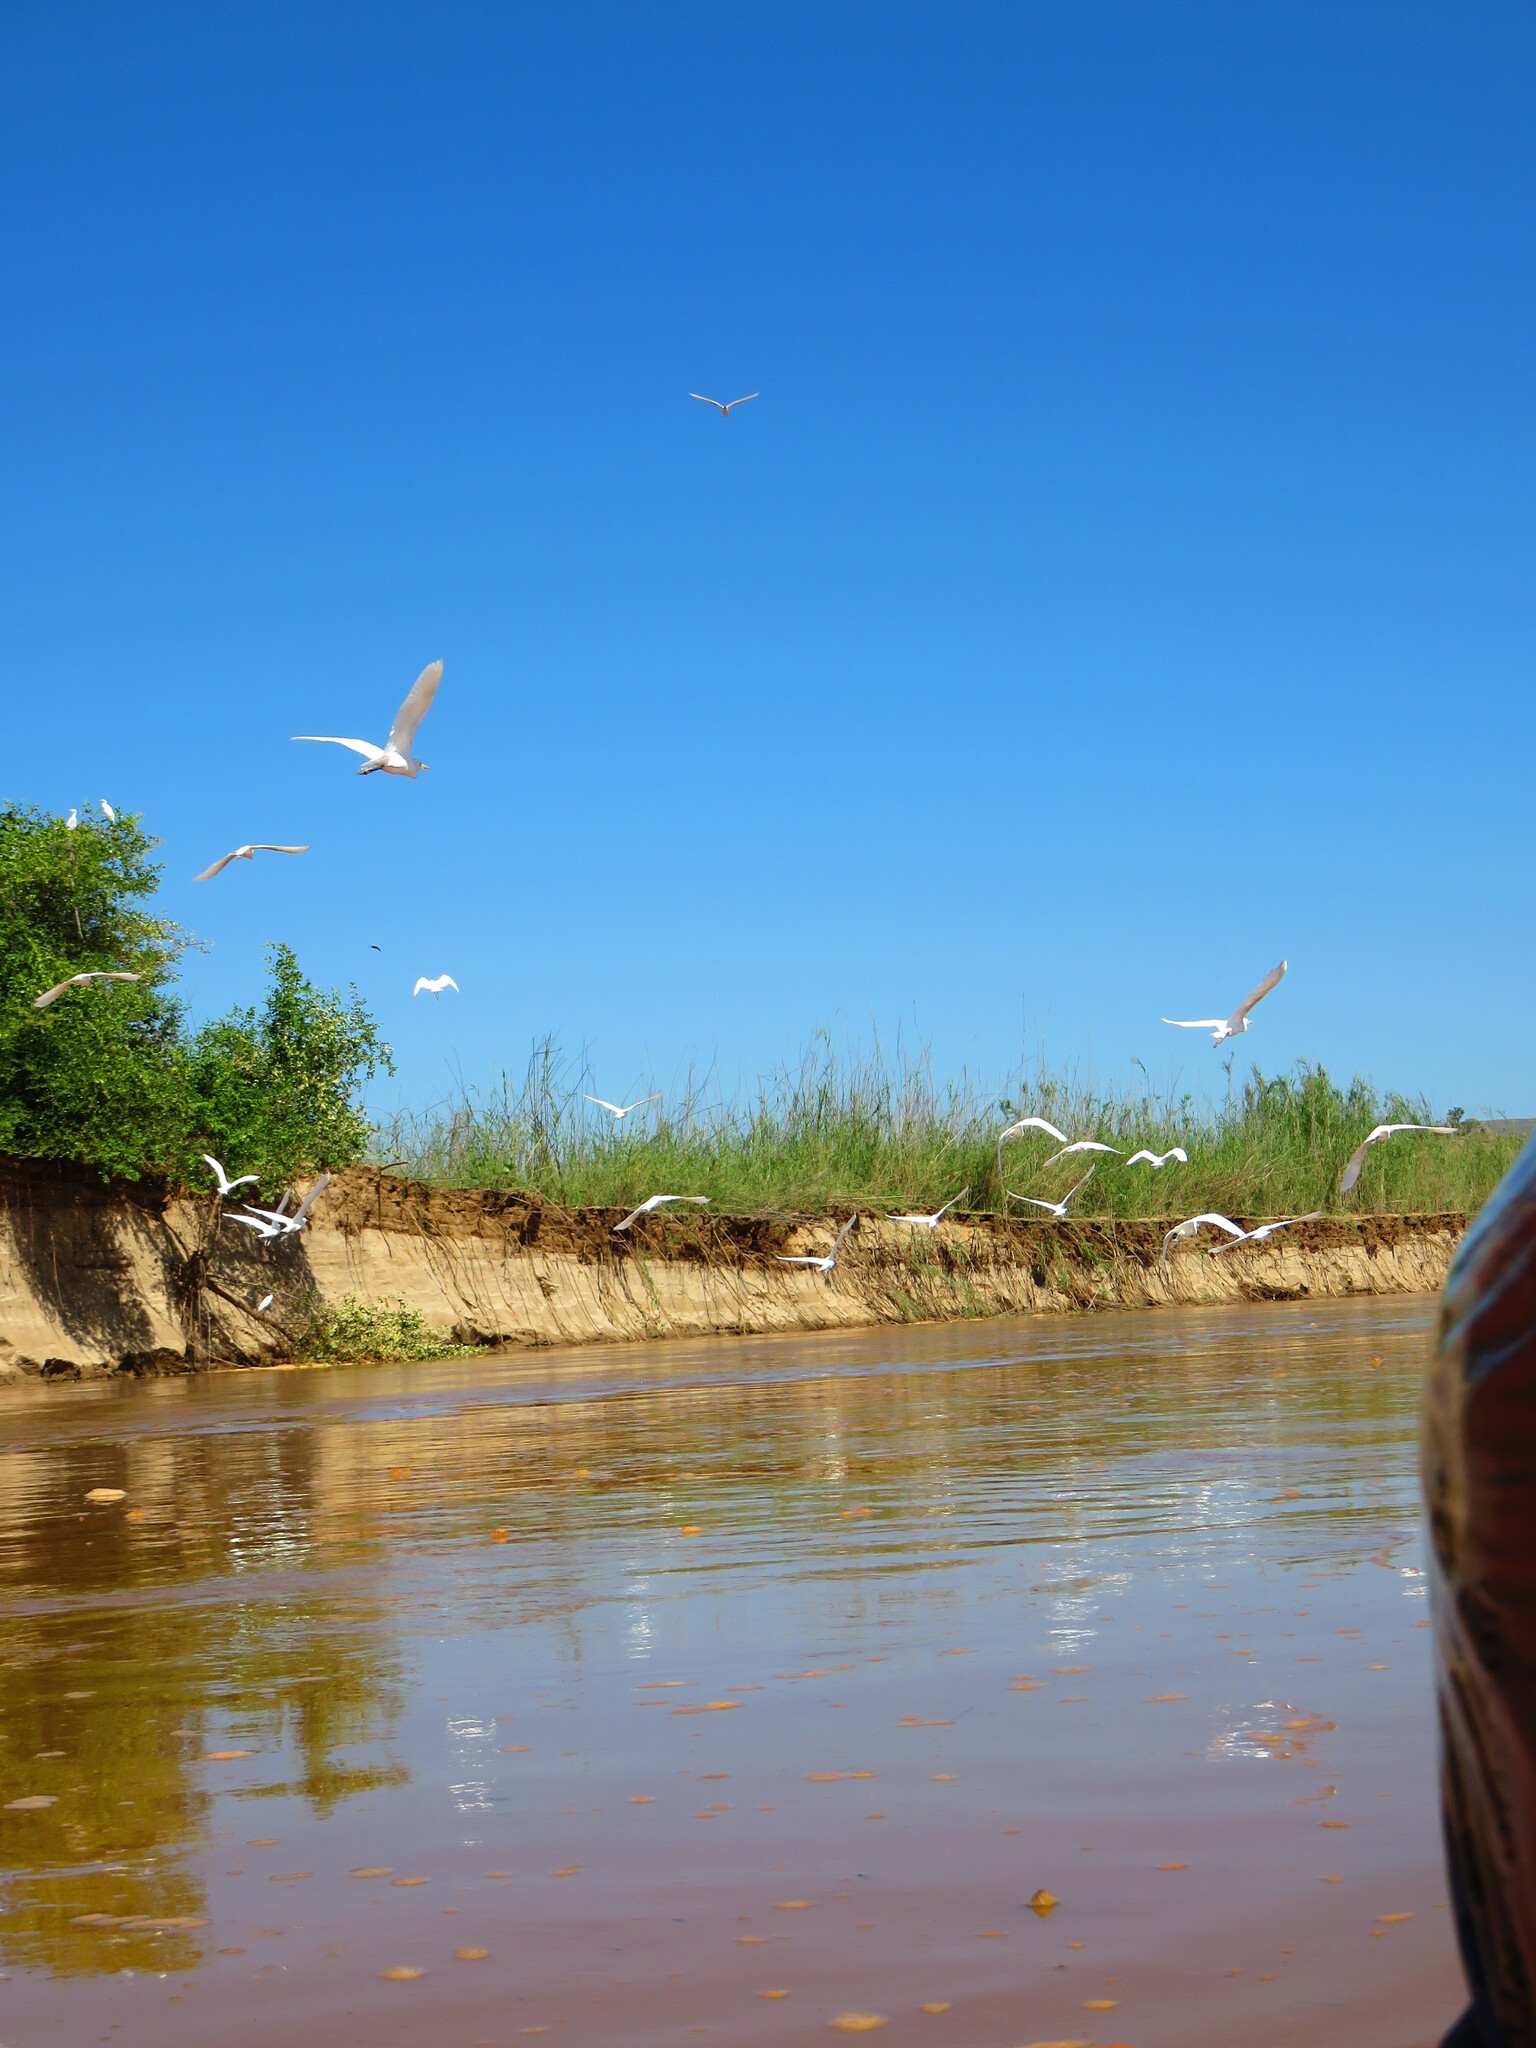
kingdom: Animalia
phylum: Chordata
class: Aves
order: Pelecaniformes
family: Ardeidae
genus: Bubulcus
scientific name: Bubulcus ibis
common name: Cattle egret
